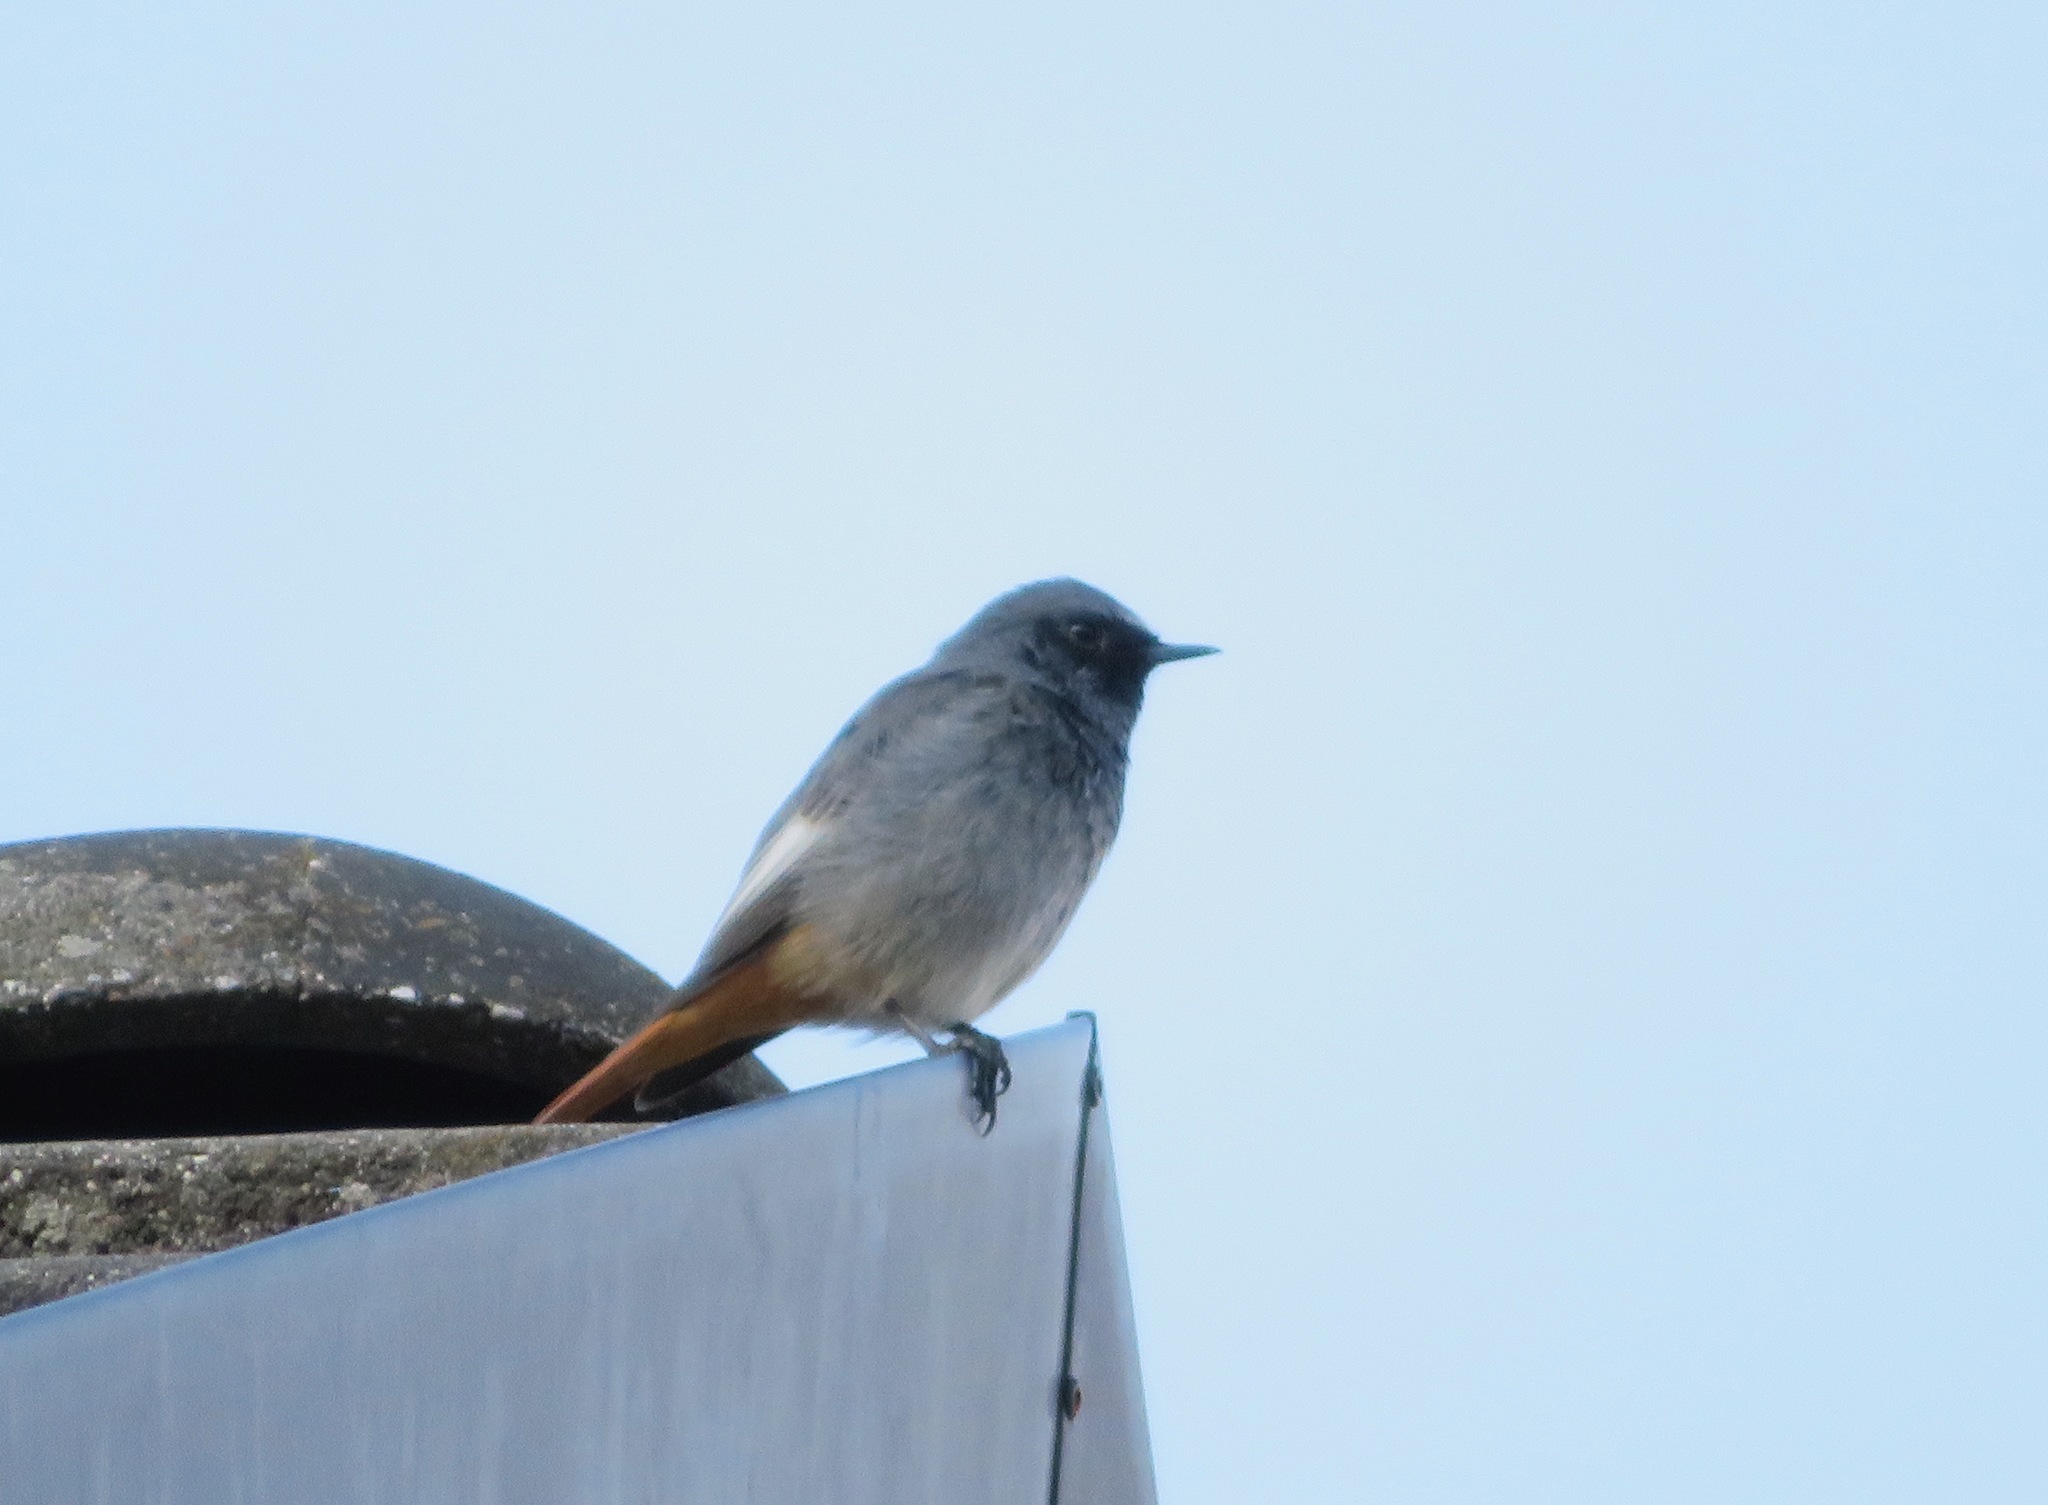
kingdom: Animalia
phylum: Chordata
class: Aves
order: Passeriformes
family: Muscicapidae
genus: Phoenicurus
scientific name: Phoenicurus ochruros
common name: Black redstart
